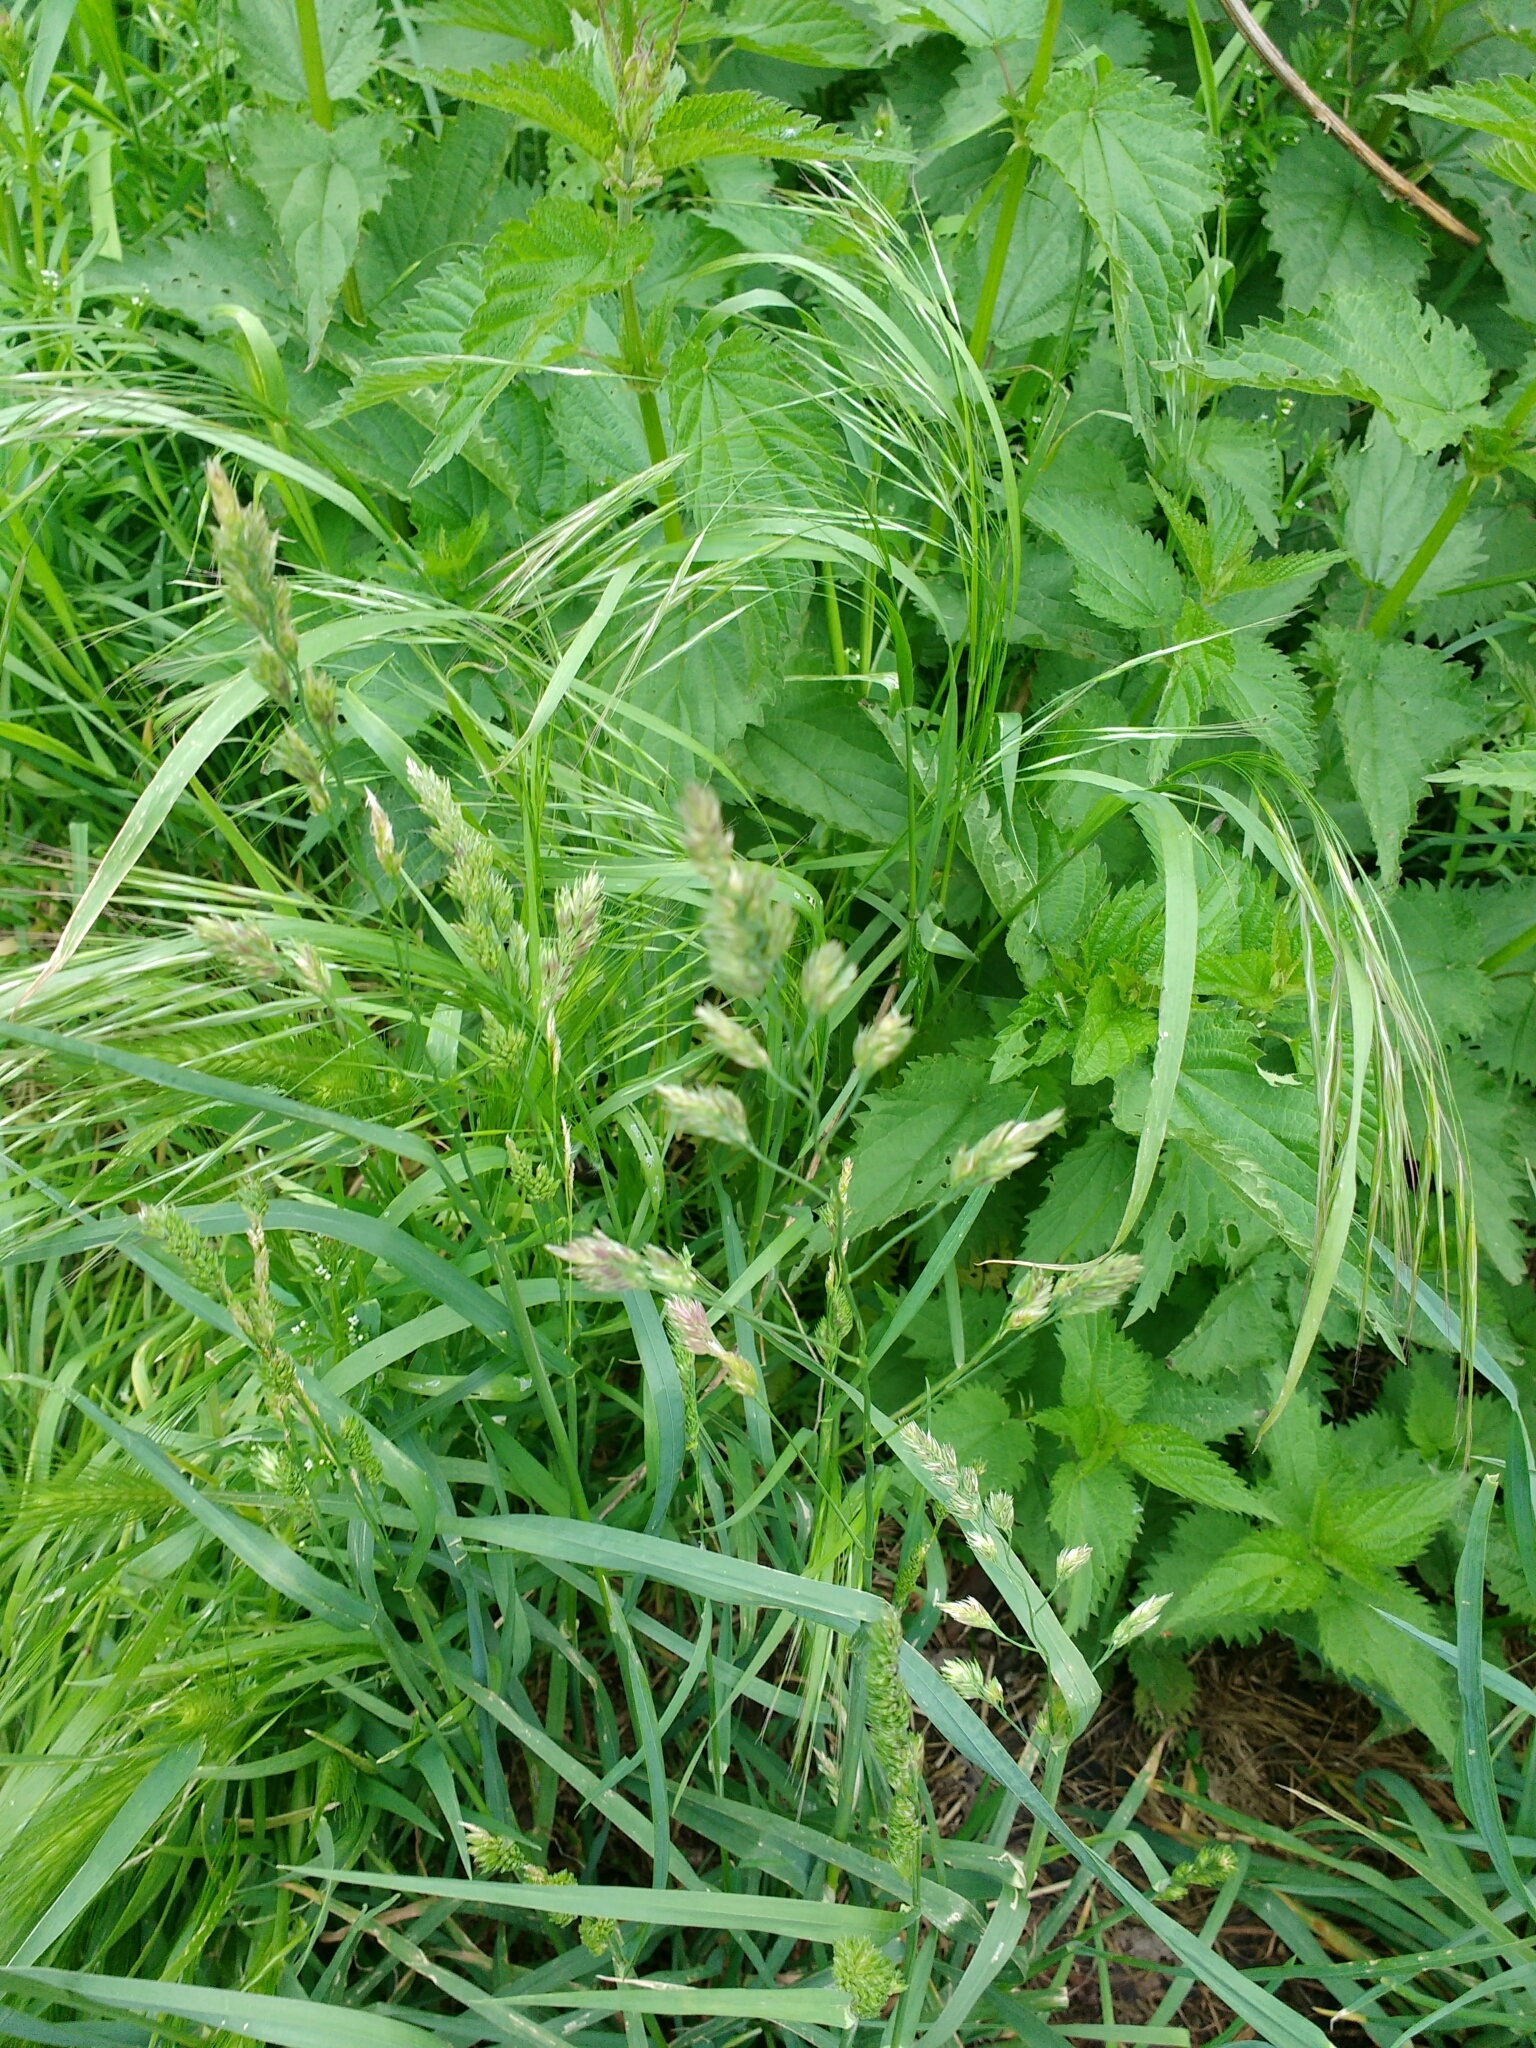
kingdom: Plantae
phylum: Tracheophyta
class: Liliopsida
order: Poales
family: Poaceae
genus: Bromus
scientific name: Bromus sterilis
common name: Poverty brome
